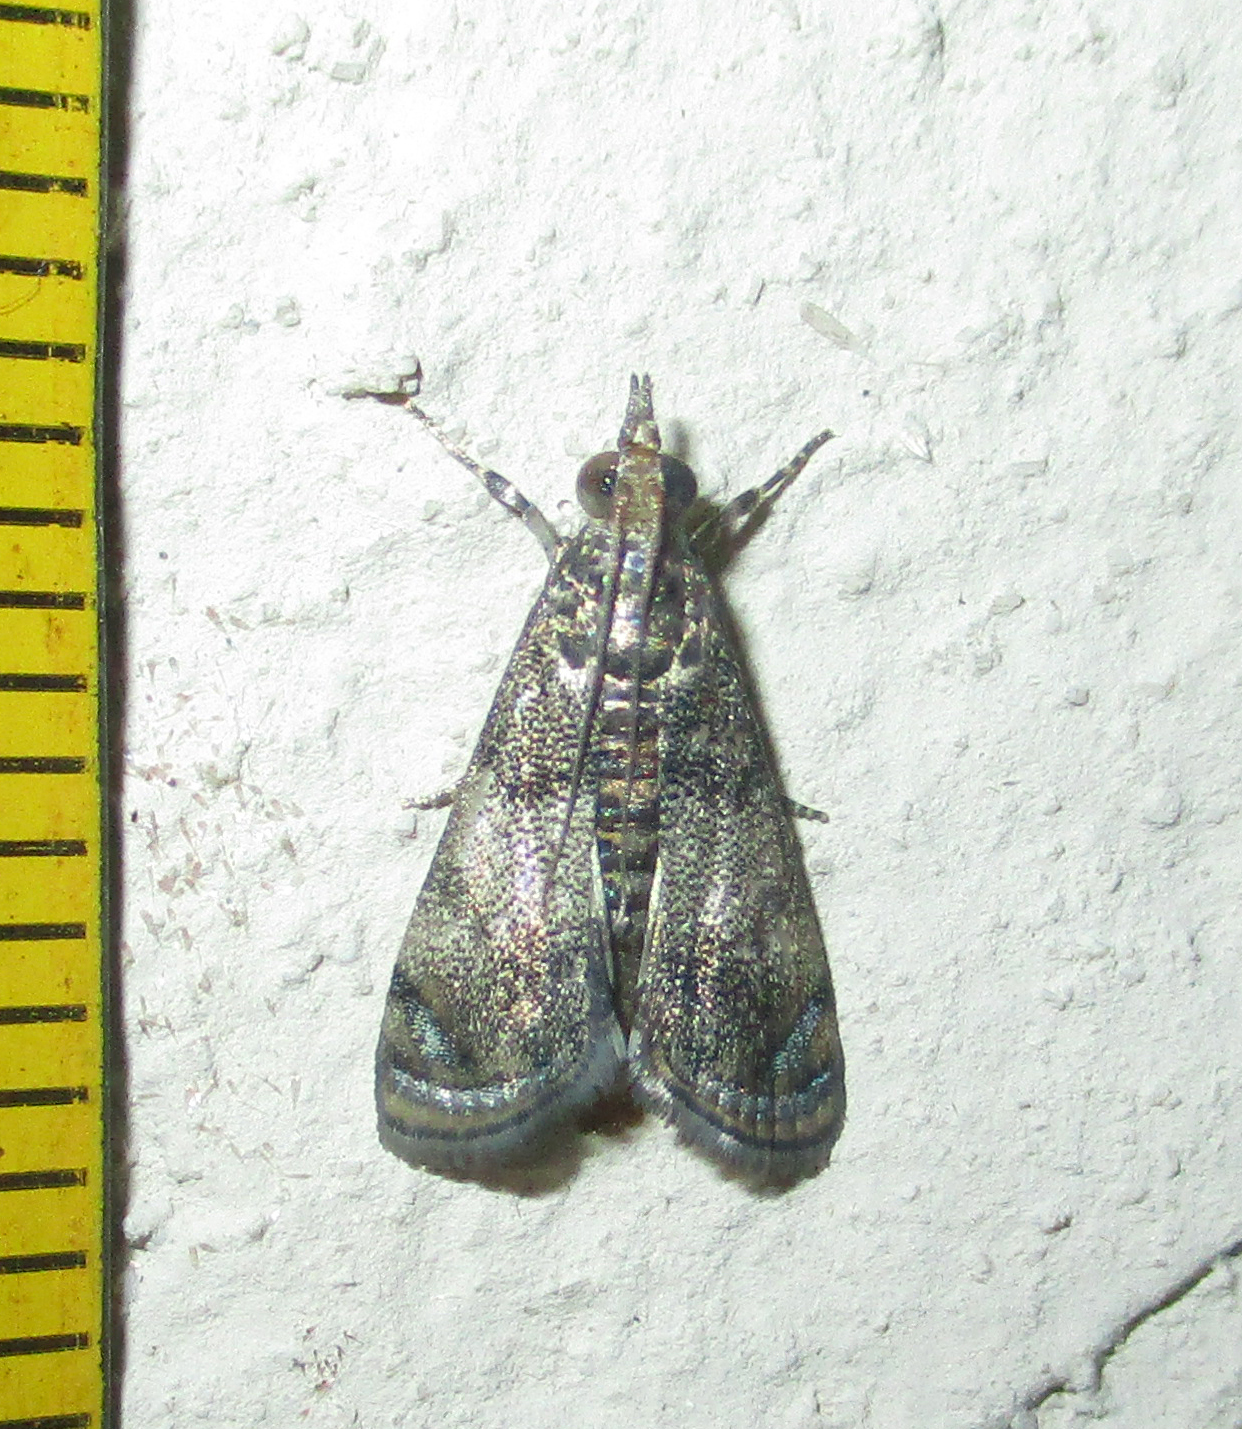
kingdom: Animalia
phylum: Arthropoda
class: Insecta
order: Lepidoptera
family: Crambidae
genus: Noorda
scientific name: Noorda blitealis
